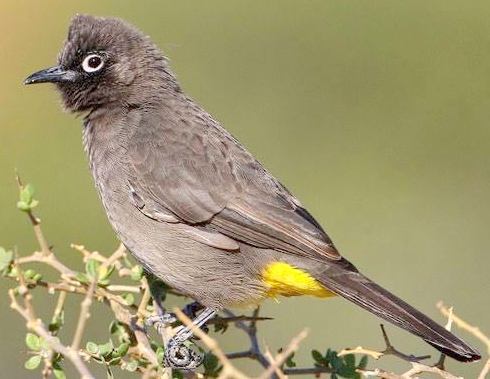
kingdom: Animalia
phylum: Chordata
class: Aves
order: Passeriformes
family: Pycnonotidae
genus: Pycnonotus
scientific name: Pycnonotus capensis
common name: Cape bulbul
